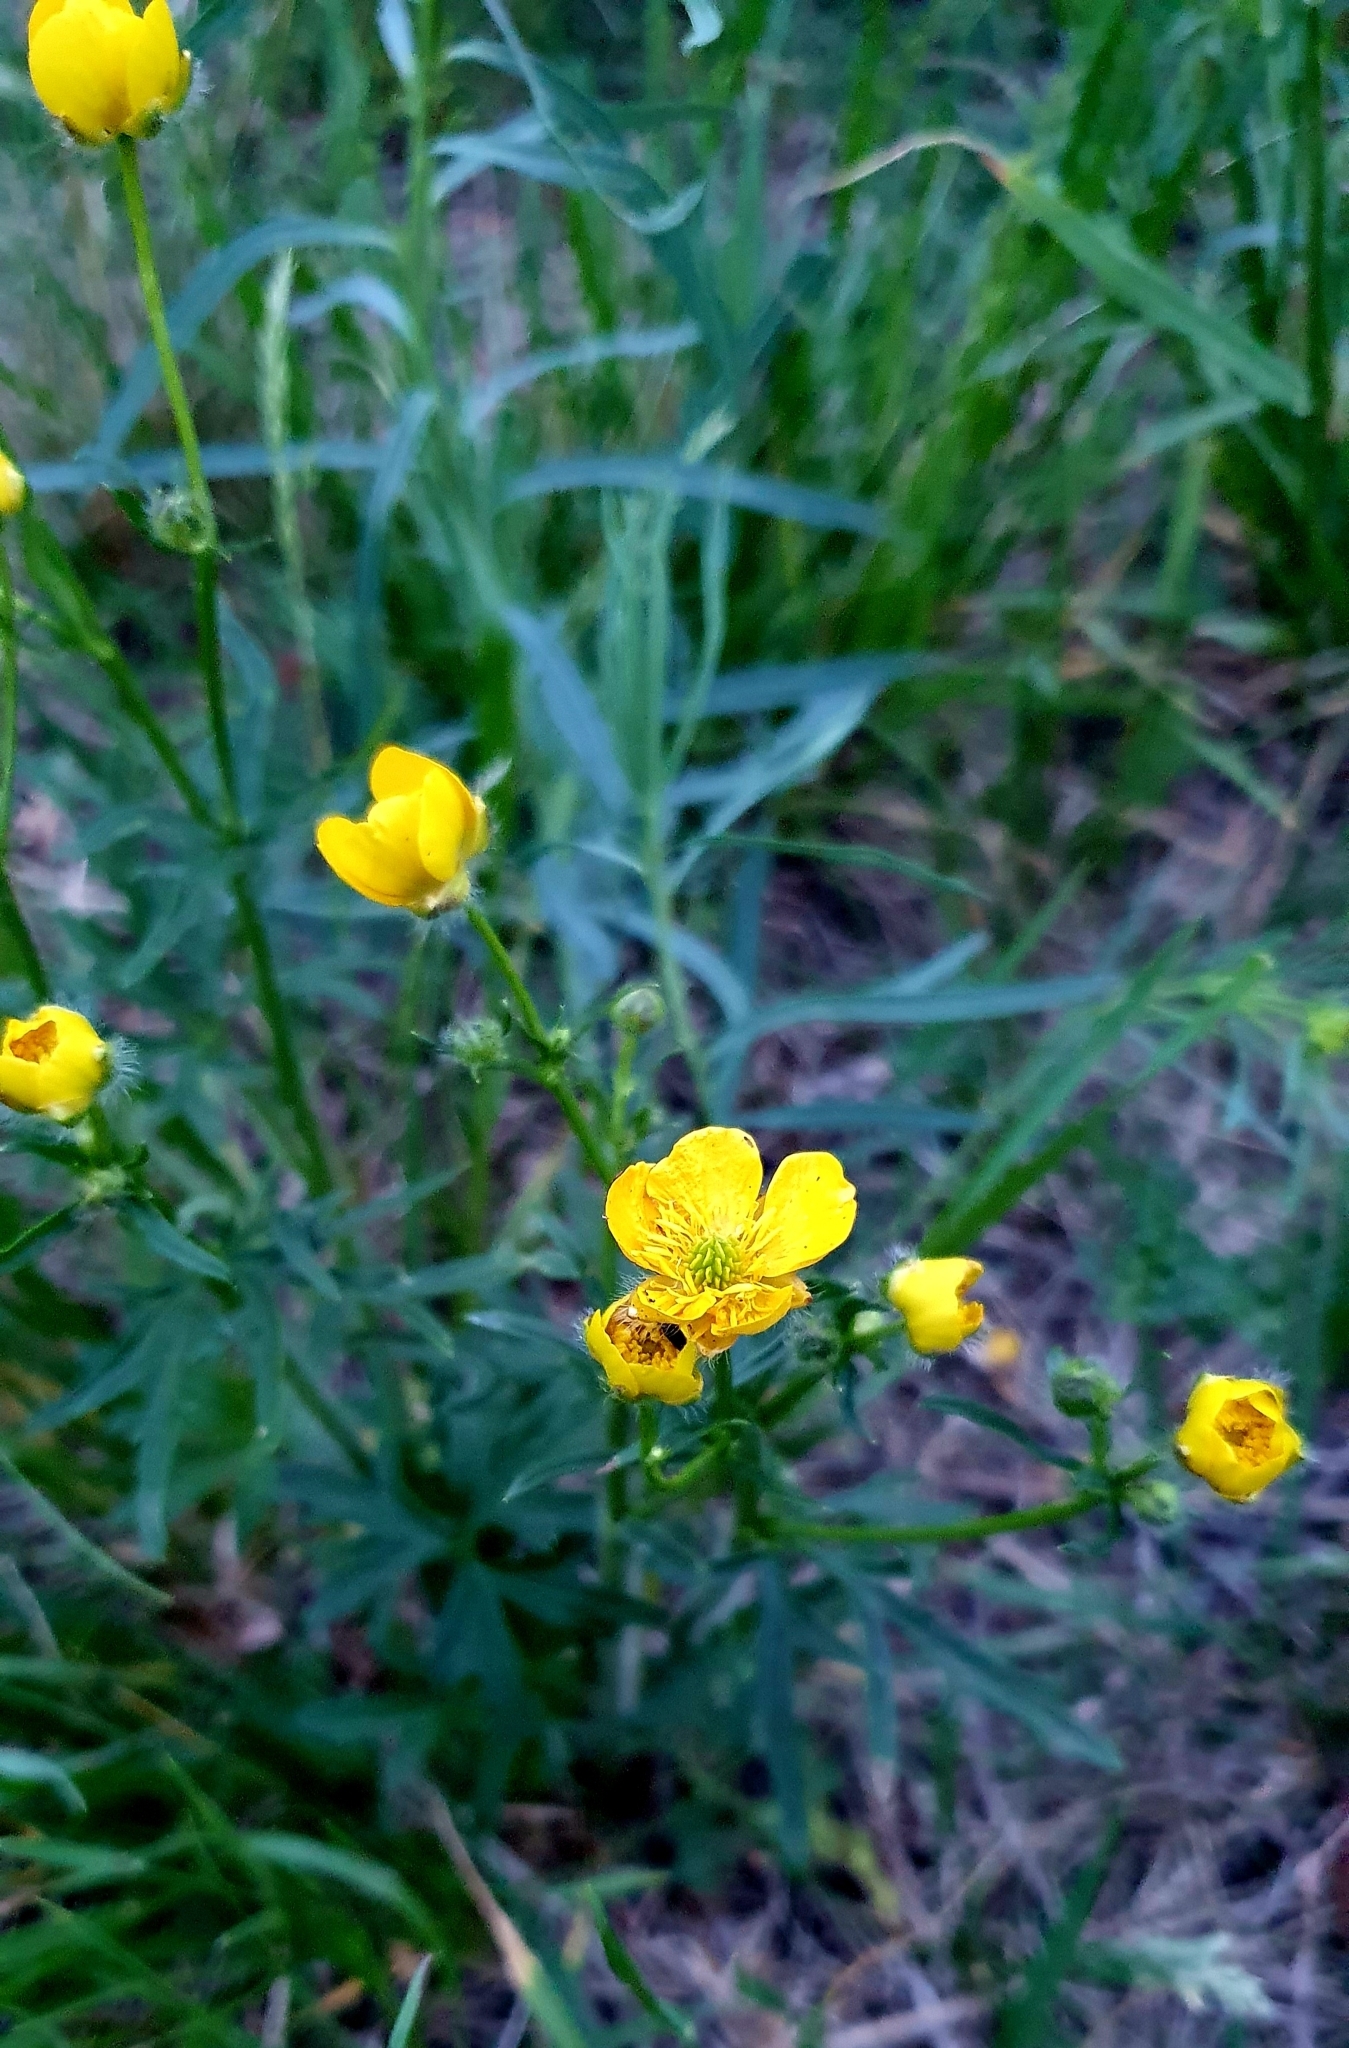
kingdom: Plantae
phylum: Tracheophyta
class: Magnoliopsida
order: Ranunculales
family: Ranunculaceae
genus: Ranunculus
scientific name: Ranunculus polyanthemos
